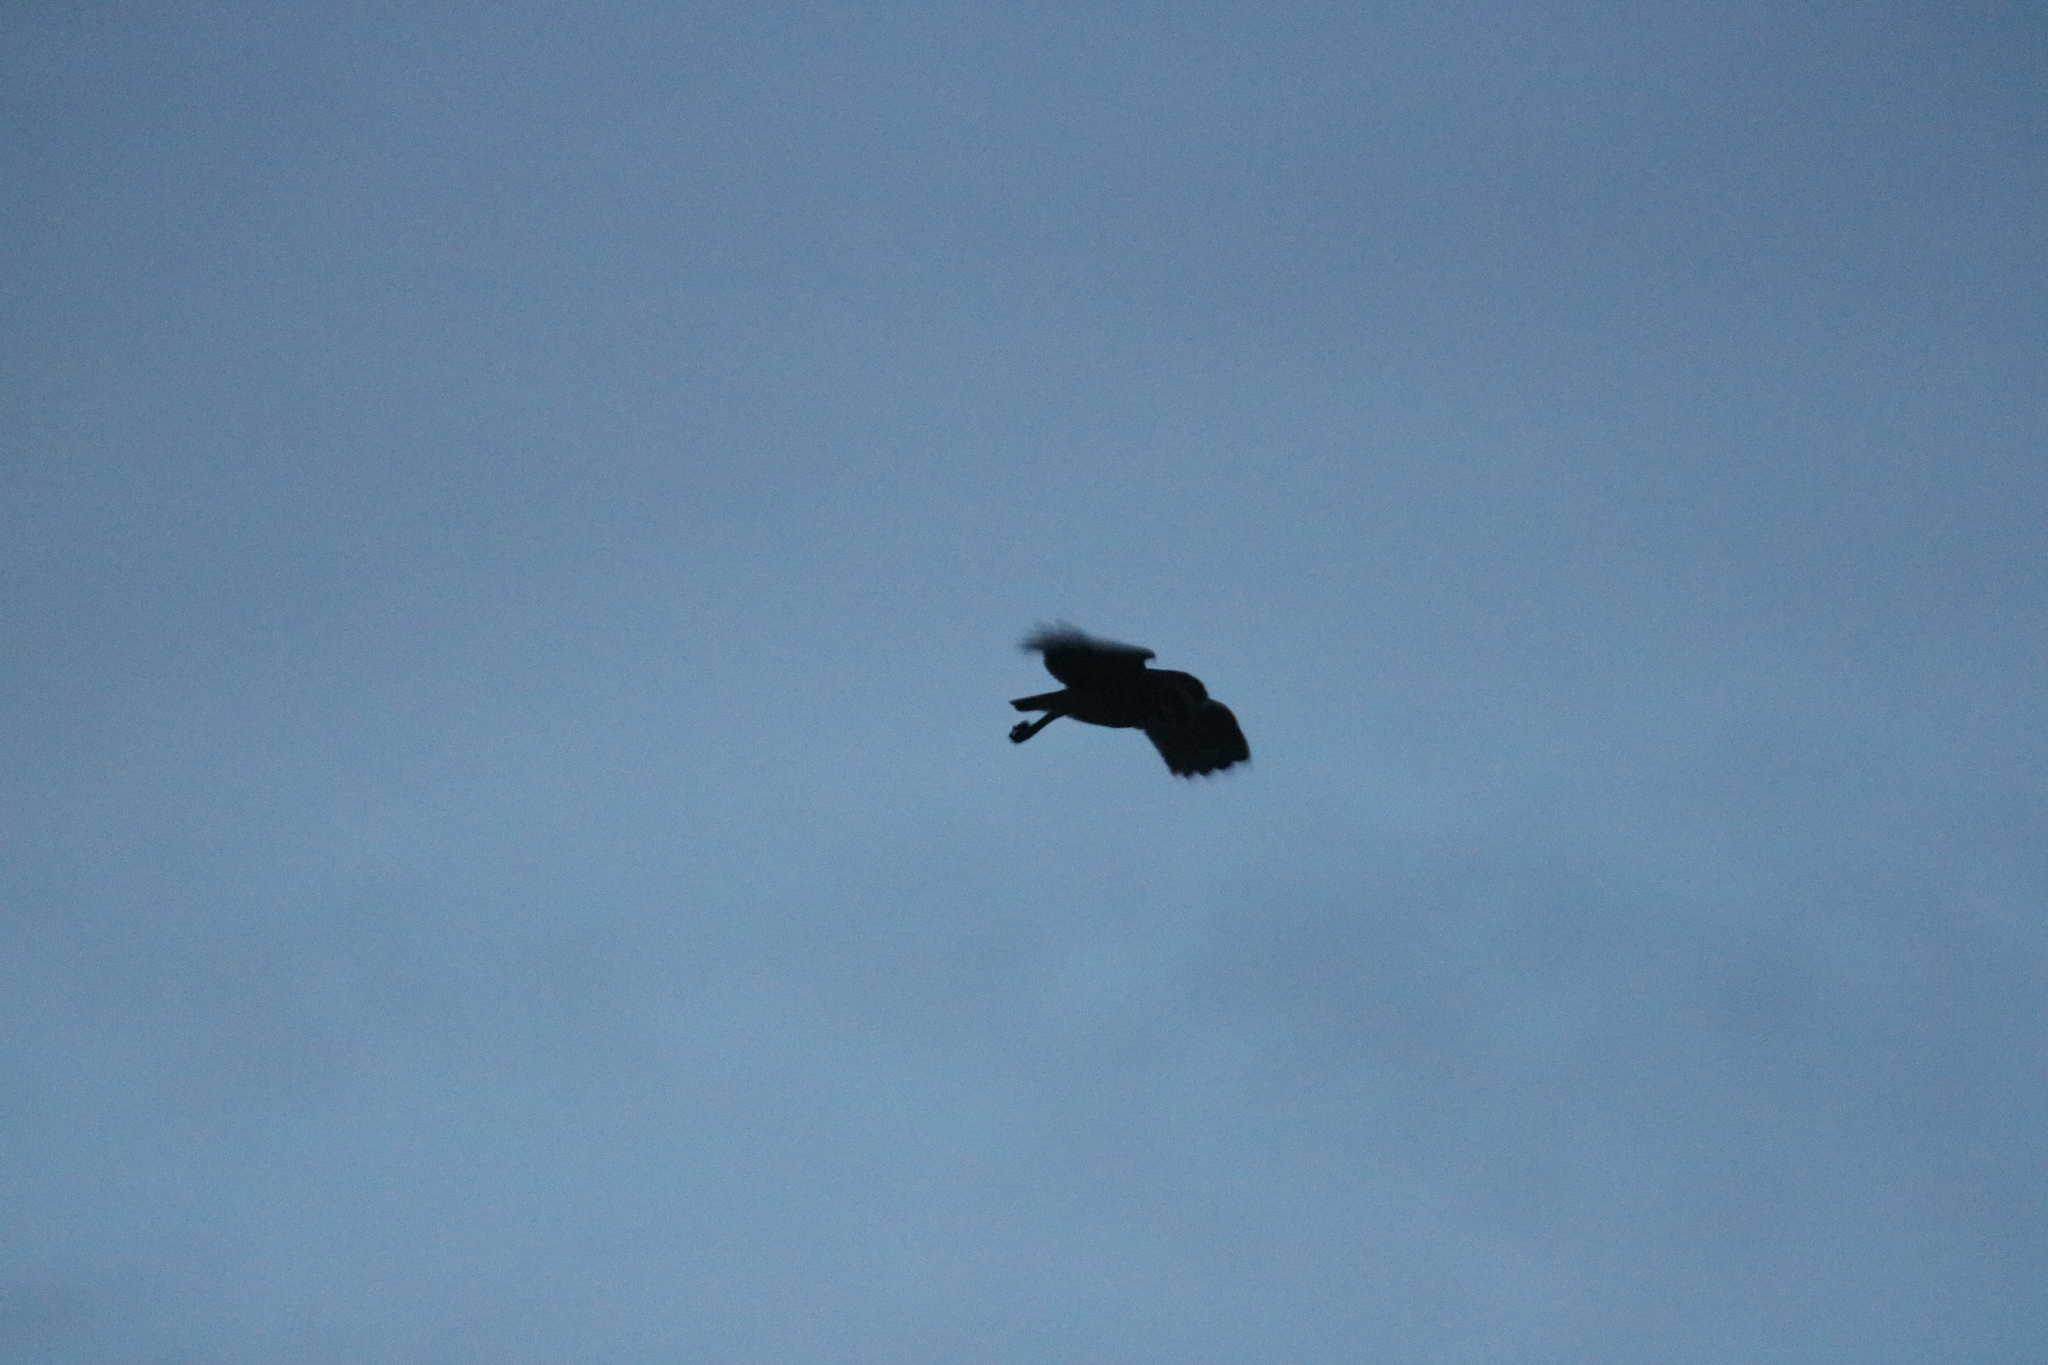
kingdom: Animalia
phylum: Chordata
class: Aves
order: Strigiformes
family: Strigidae
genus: Athene
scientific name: Athene cunicularia
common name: Burrowing owl
